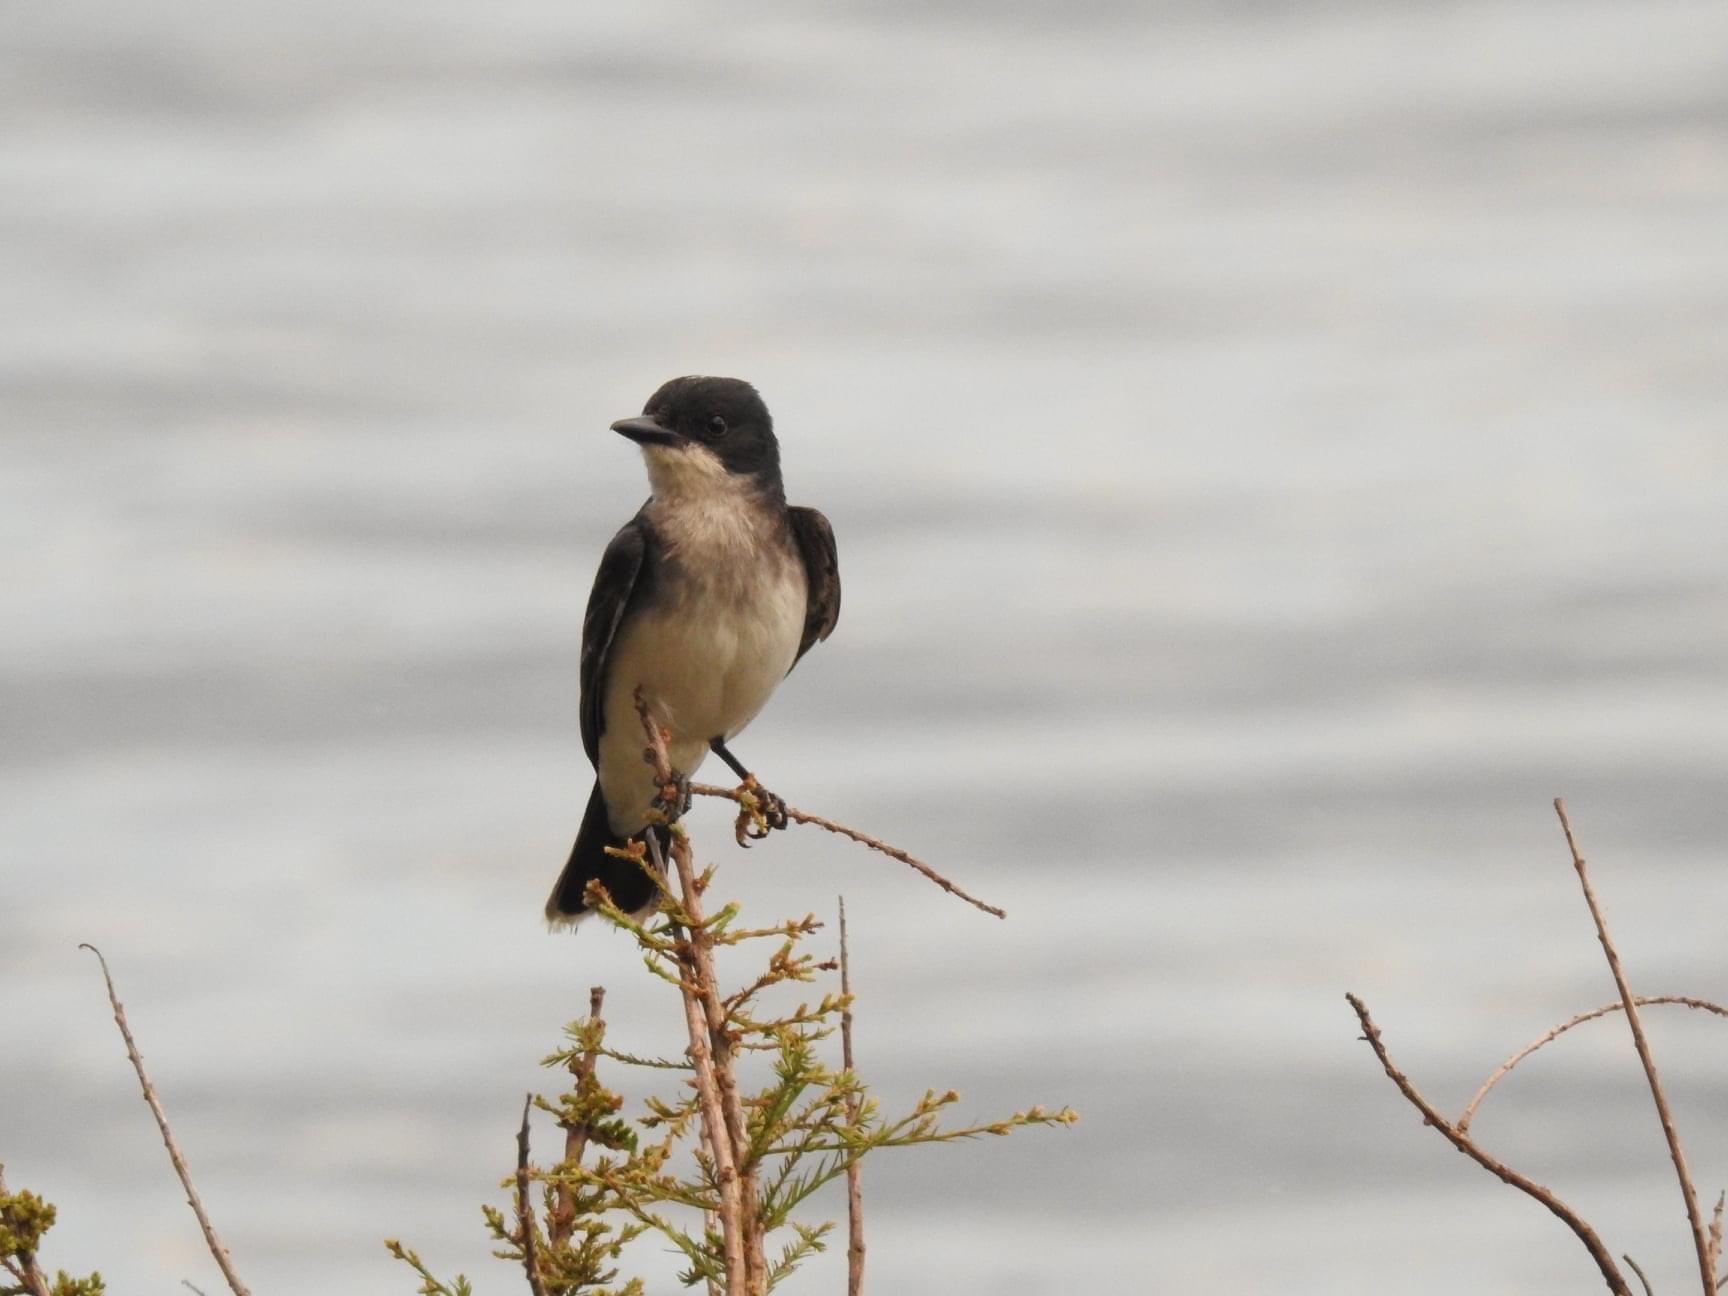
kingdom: Animalia
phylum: Chordata
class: Aves
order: Passeriformes
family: Tyrannidae
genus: Tyrannus
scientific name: Tyrannus tyrannus
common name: Eastern kingbird
